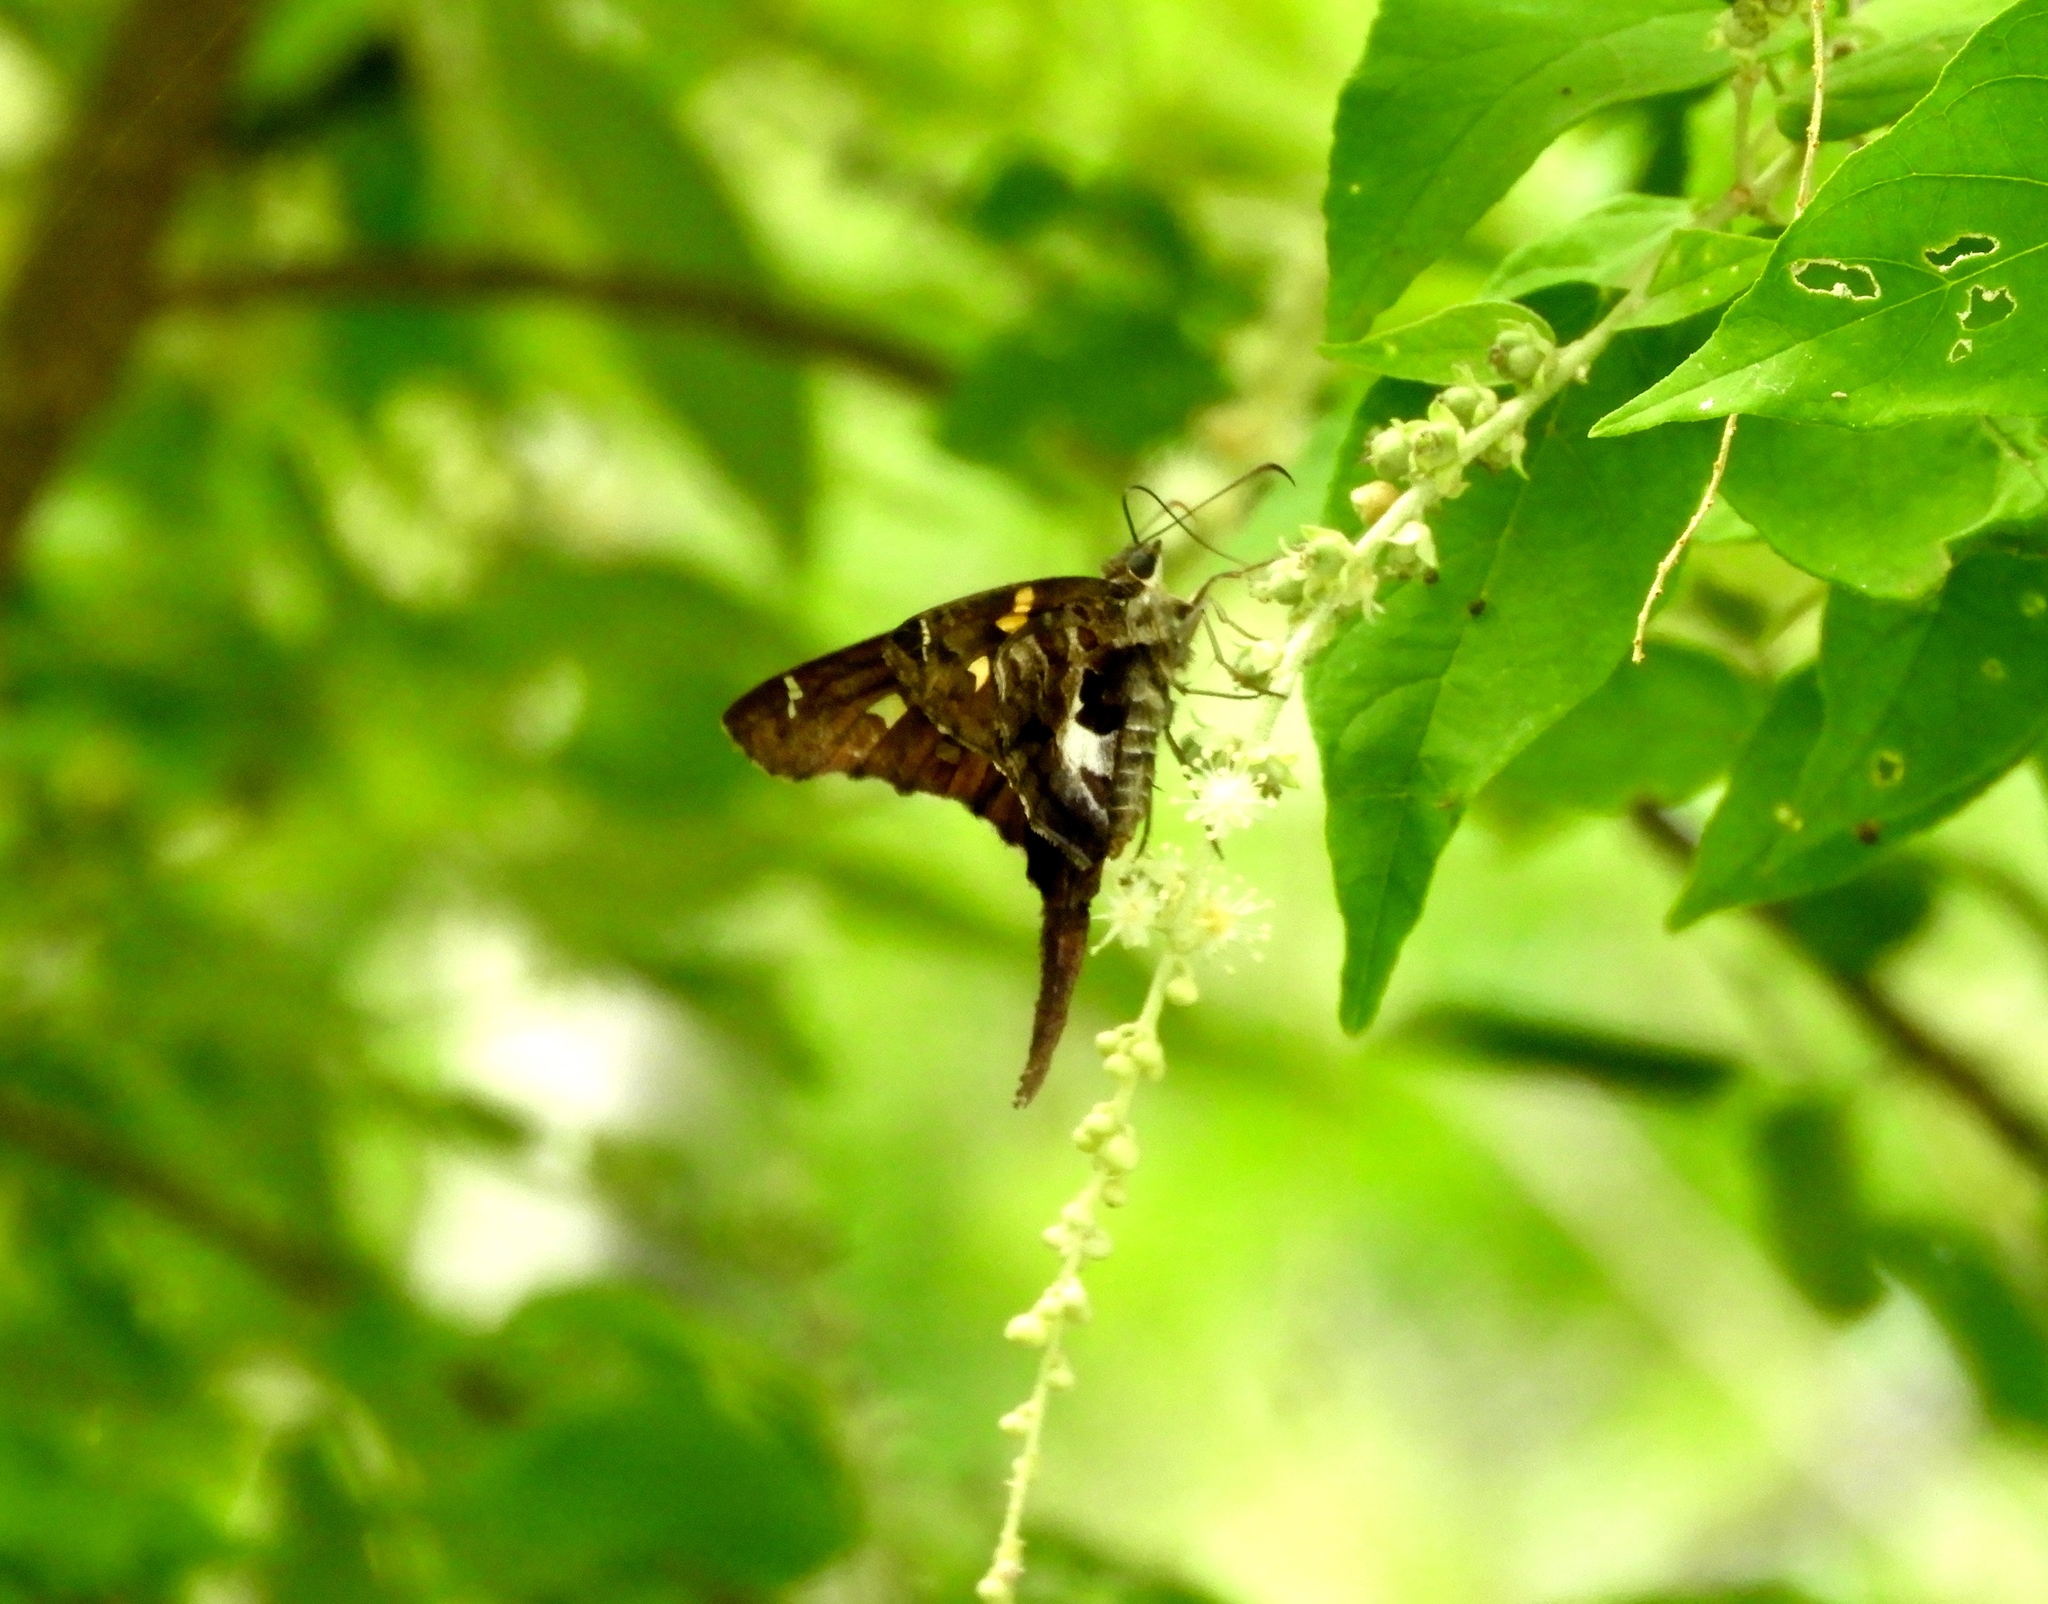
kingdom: Animalia
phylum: Arthropoda
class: Insecta
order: Lepidoptera
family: Hesperiidae
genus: Chioides
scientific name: Chioides zilpa
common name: Zilpa longtail
